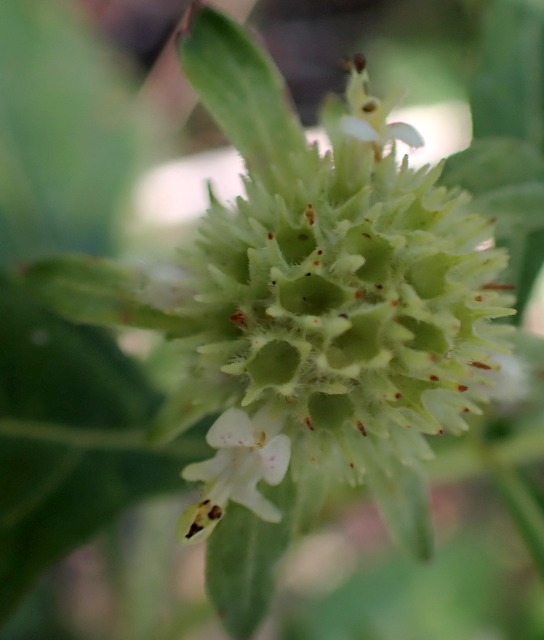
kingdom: Plantae
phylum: Tracheophyta
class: Magnoliopsida
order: Lamiales
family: Lamiaceae
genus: Hyptis
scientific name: Hyptis alata
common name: Cluster bush-mint
